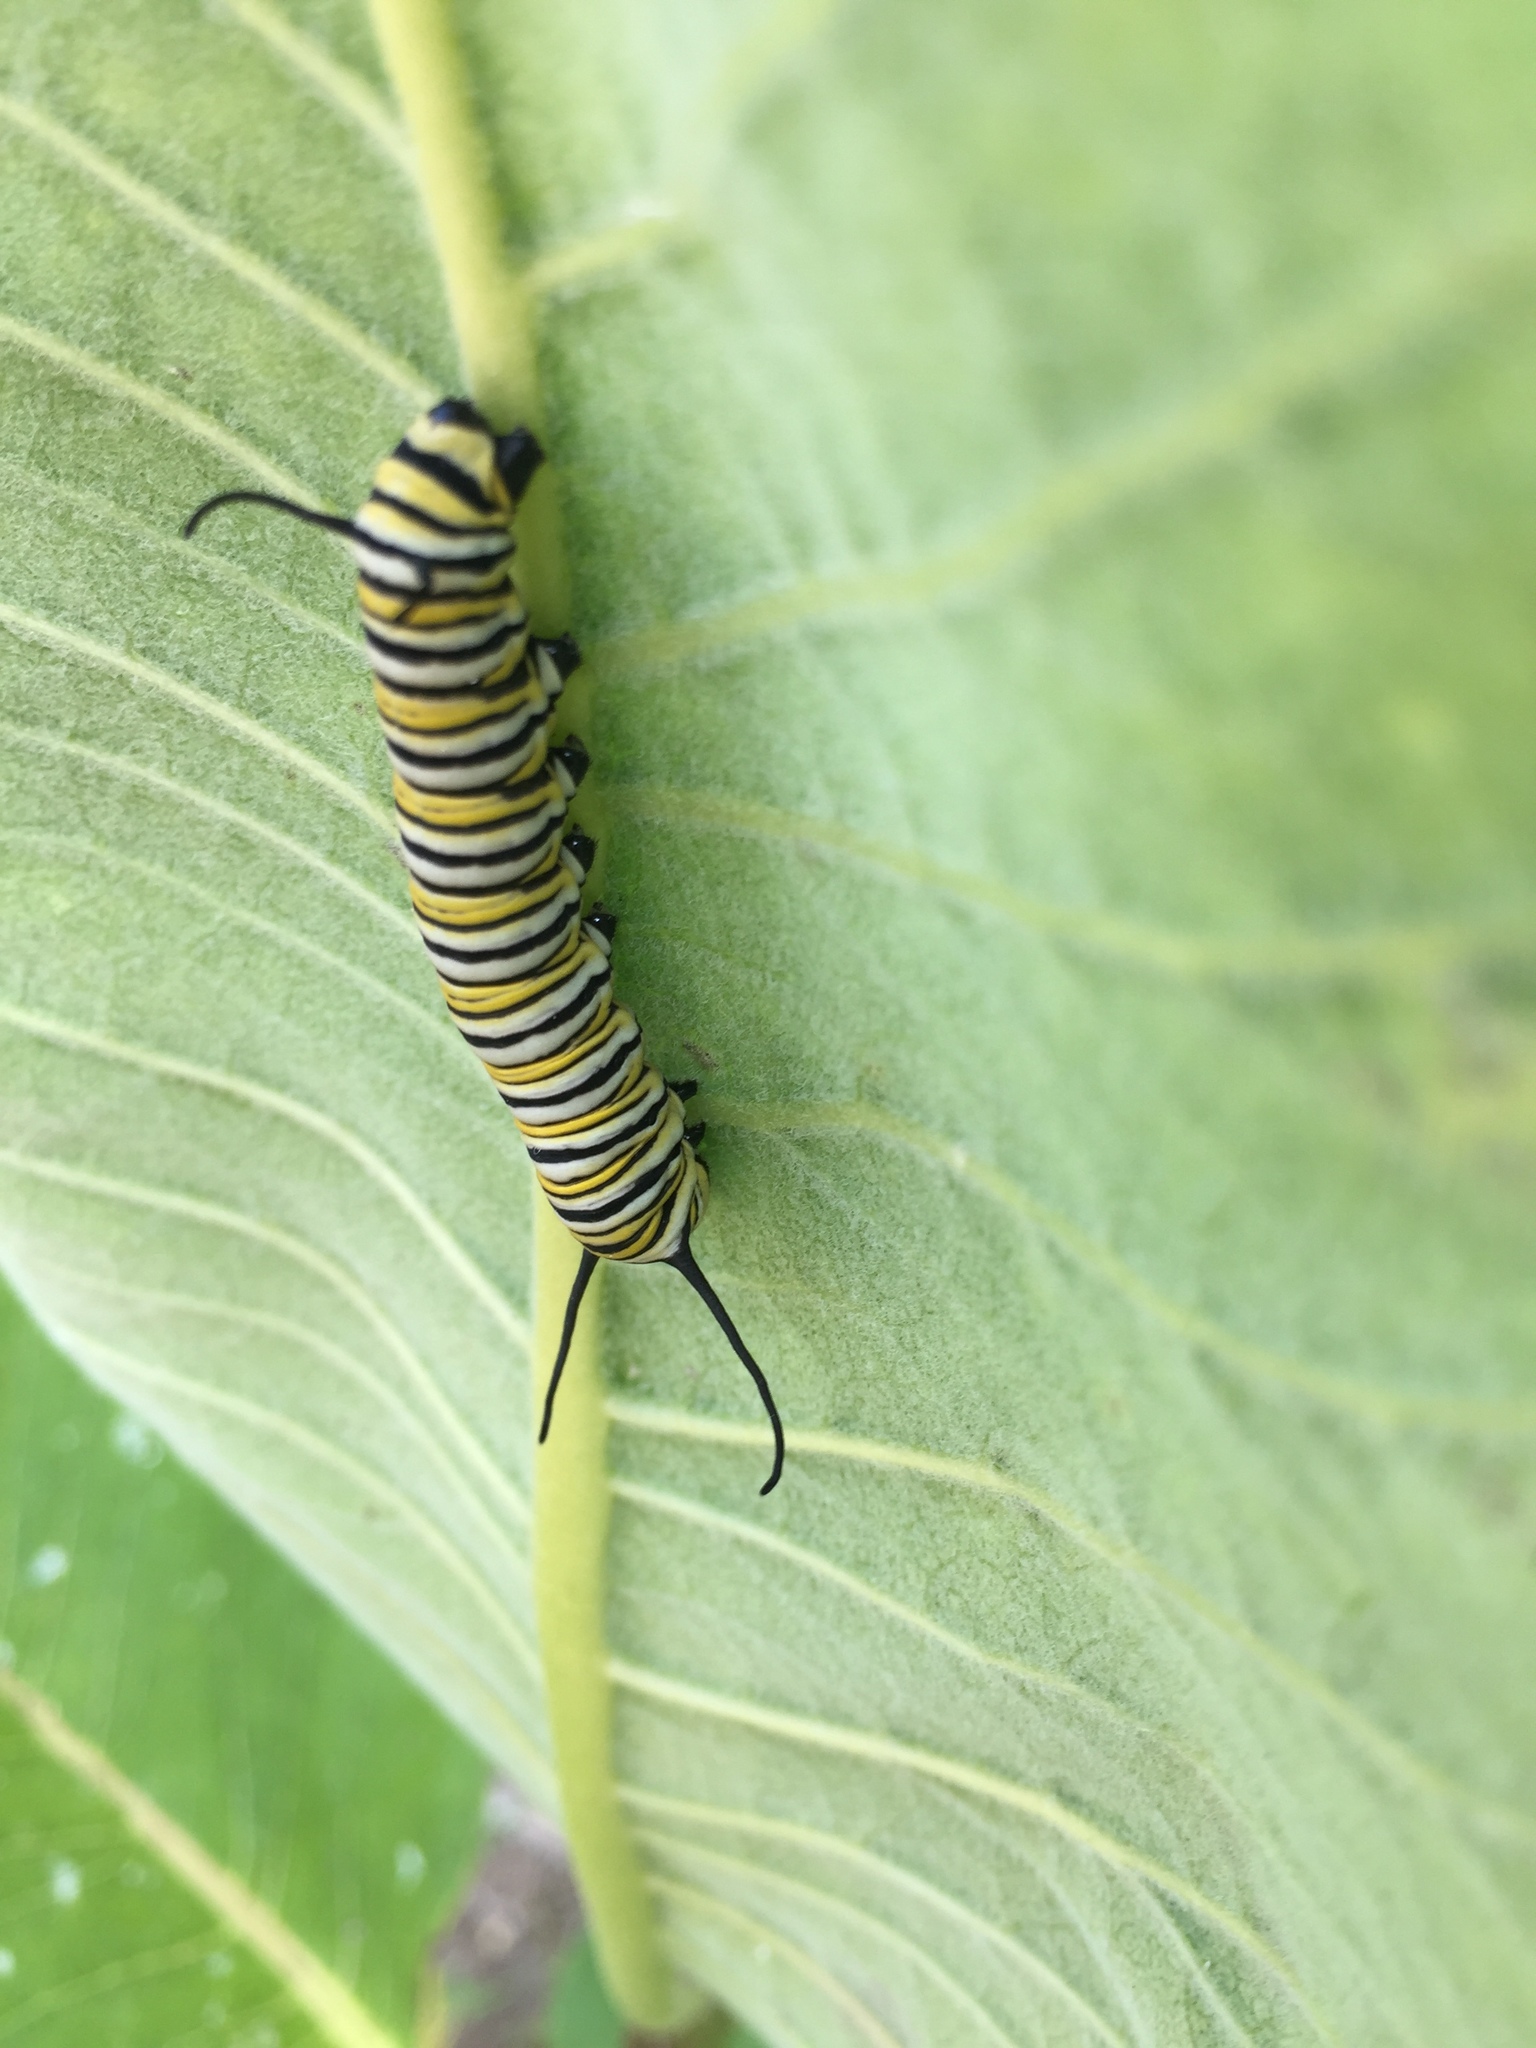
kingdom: Animalia
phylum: Arthropoda
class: Insecta
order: Lepidoptera
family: Nymphalidae
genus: Danaus
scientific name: Danaus plexippus
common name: Monarch
